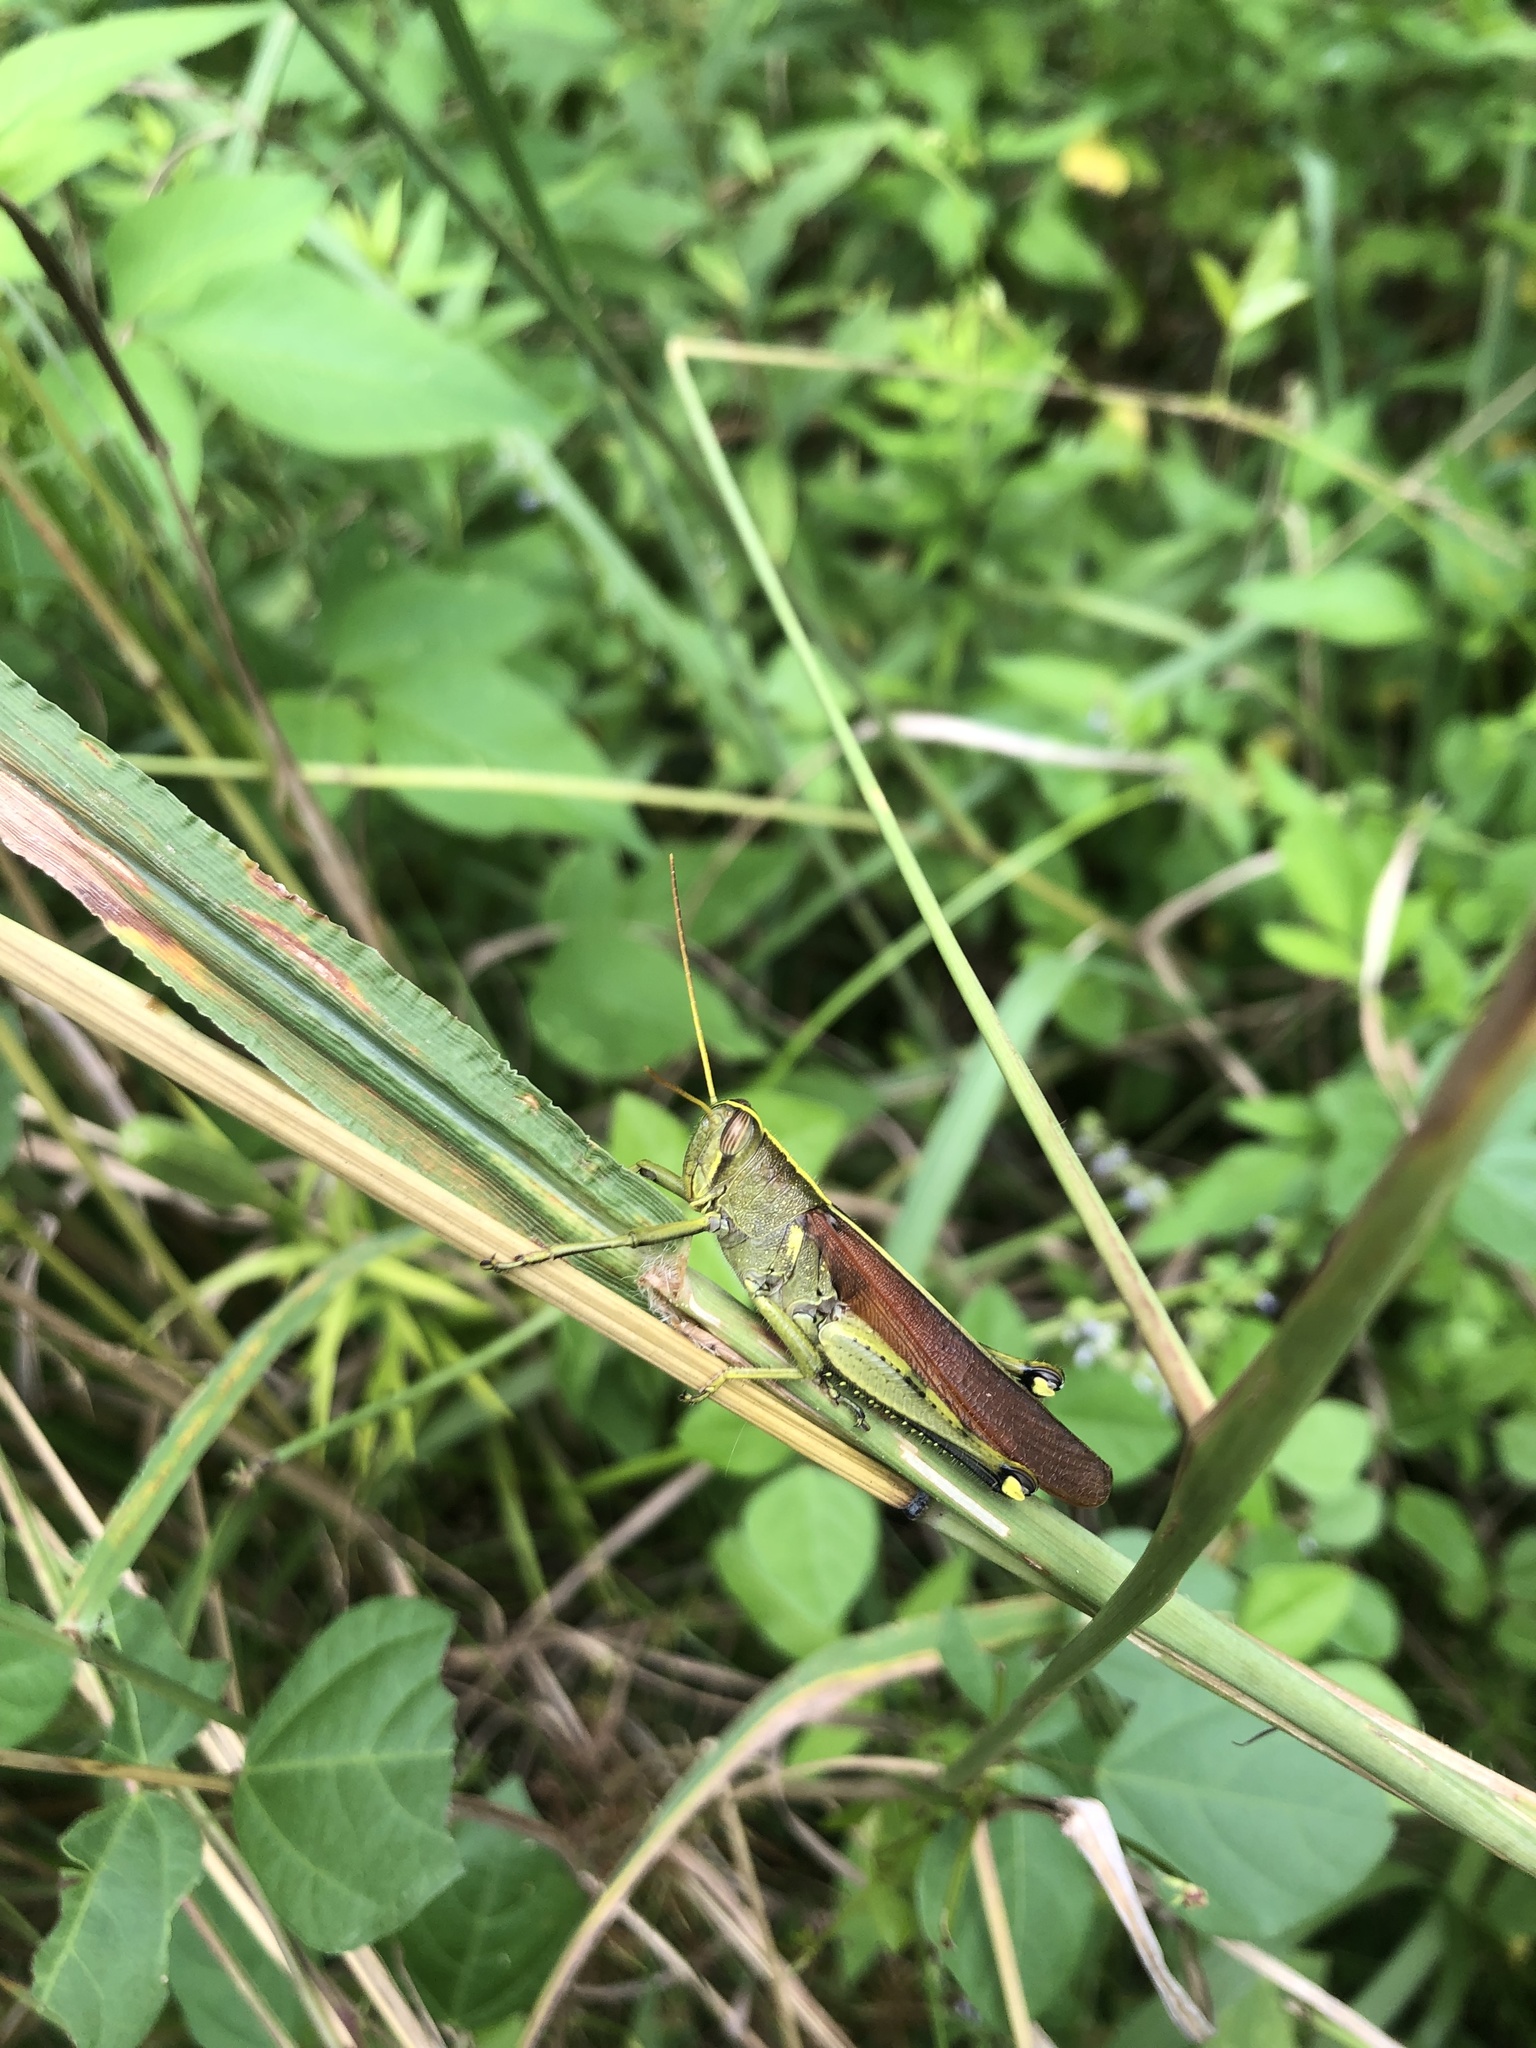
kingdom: Animalia
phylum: Arthropoda
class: Insecta
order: Orthoptera
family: Acrididae
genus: Schistocerca
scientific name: Schistocerca obscura
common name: Obscure bird grasshopper
